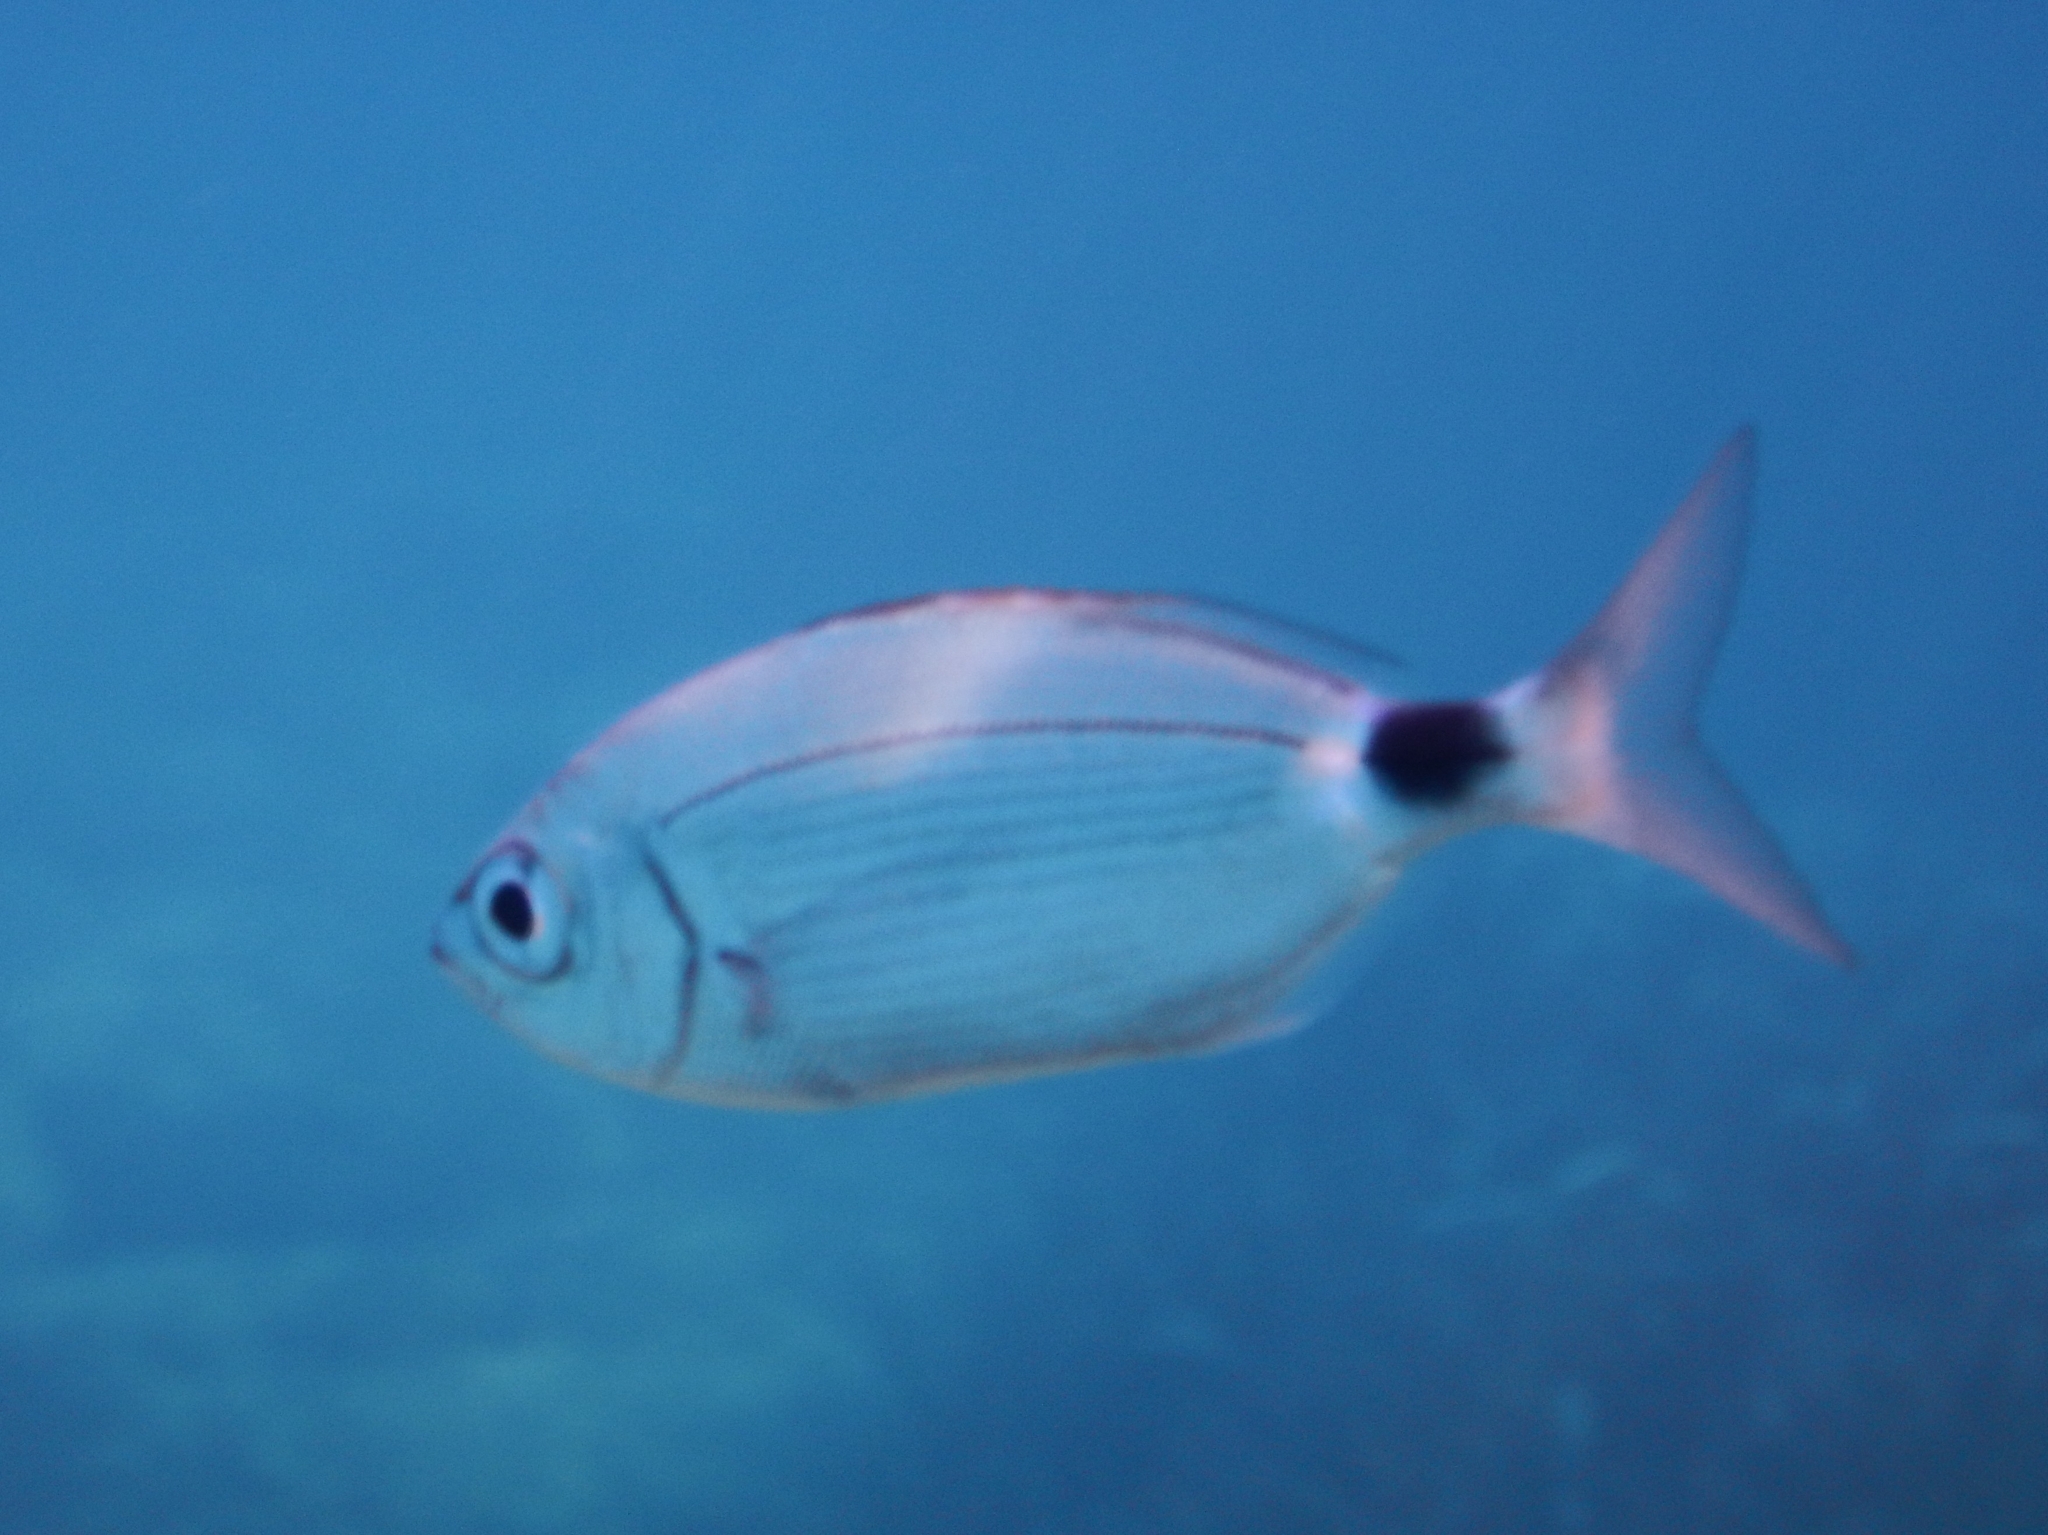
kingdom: Animalia
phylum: Chordata
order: Perciformes
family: Sparidae
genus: Oblada
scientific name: Oblada melanura
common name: Saddled seabream
